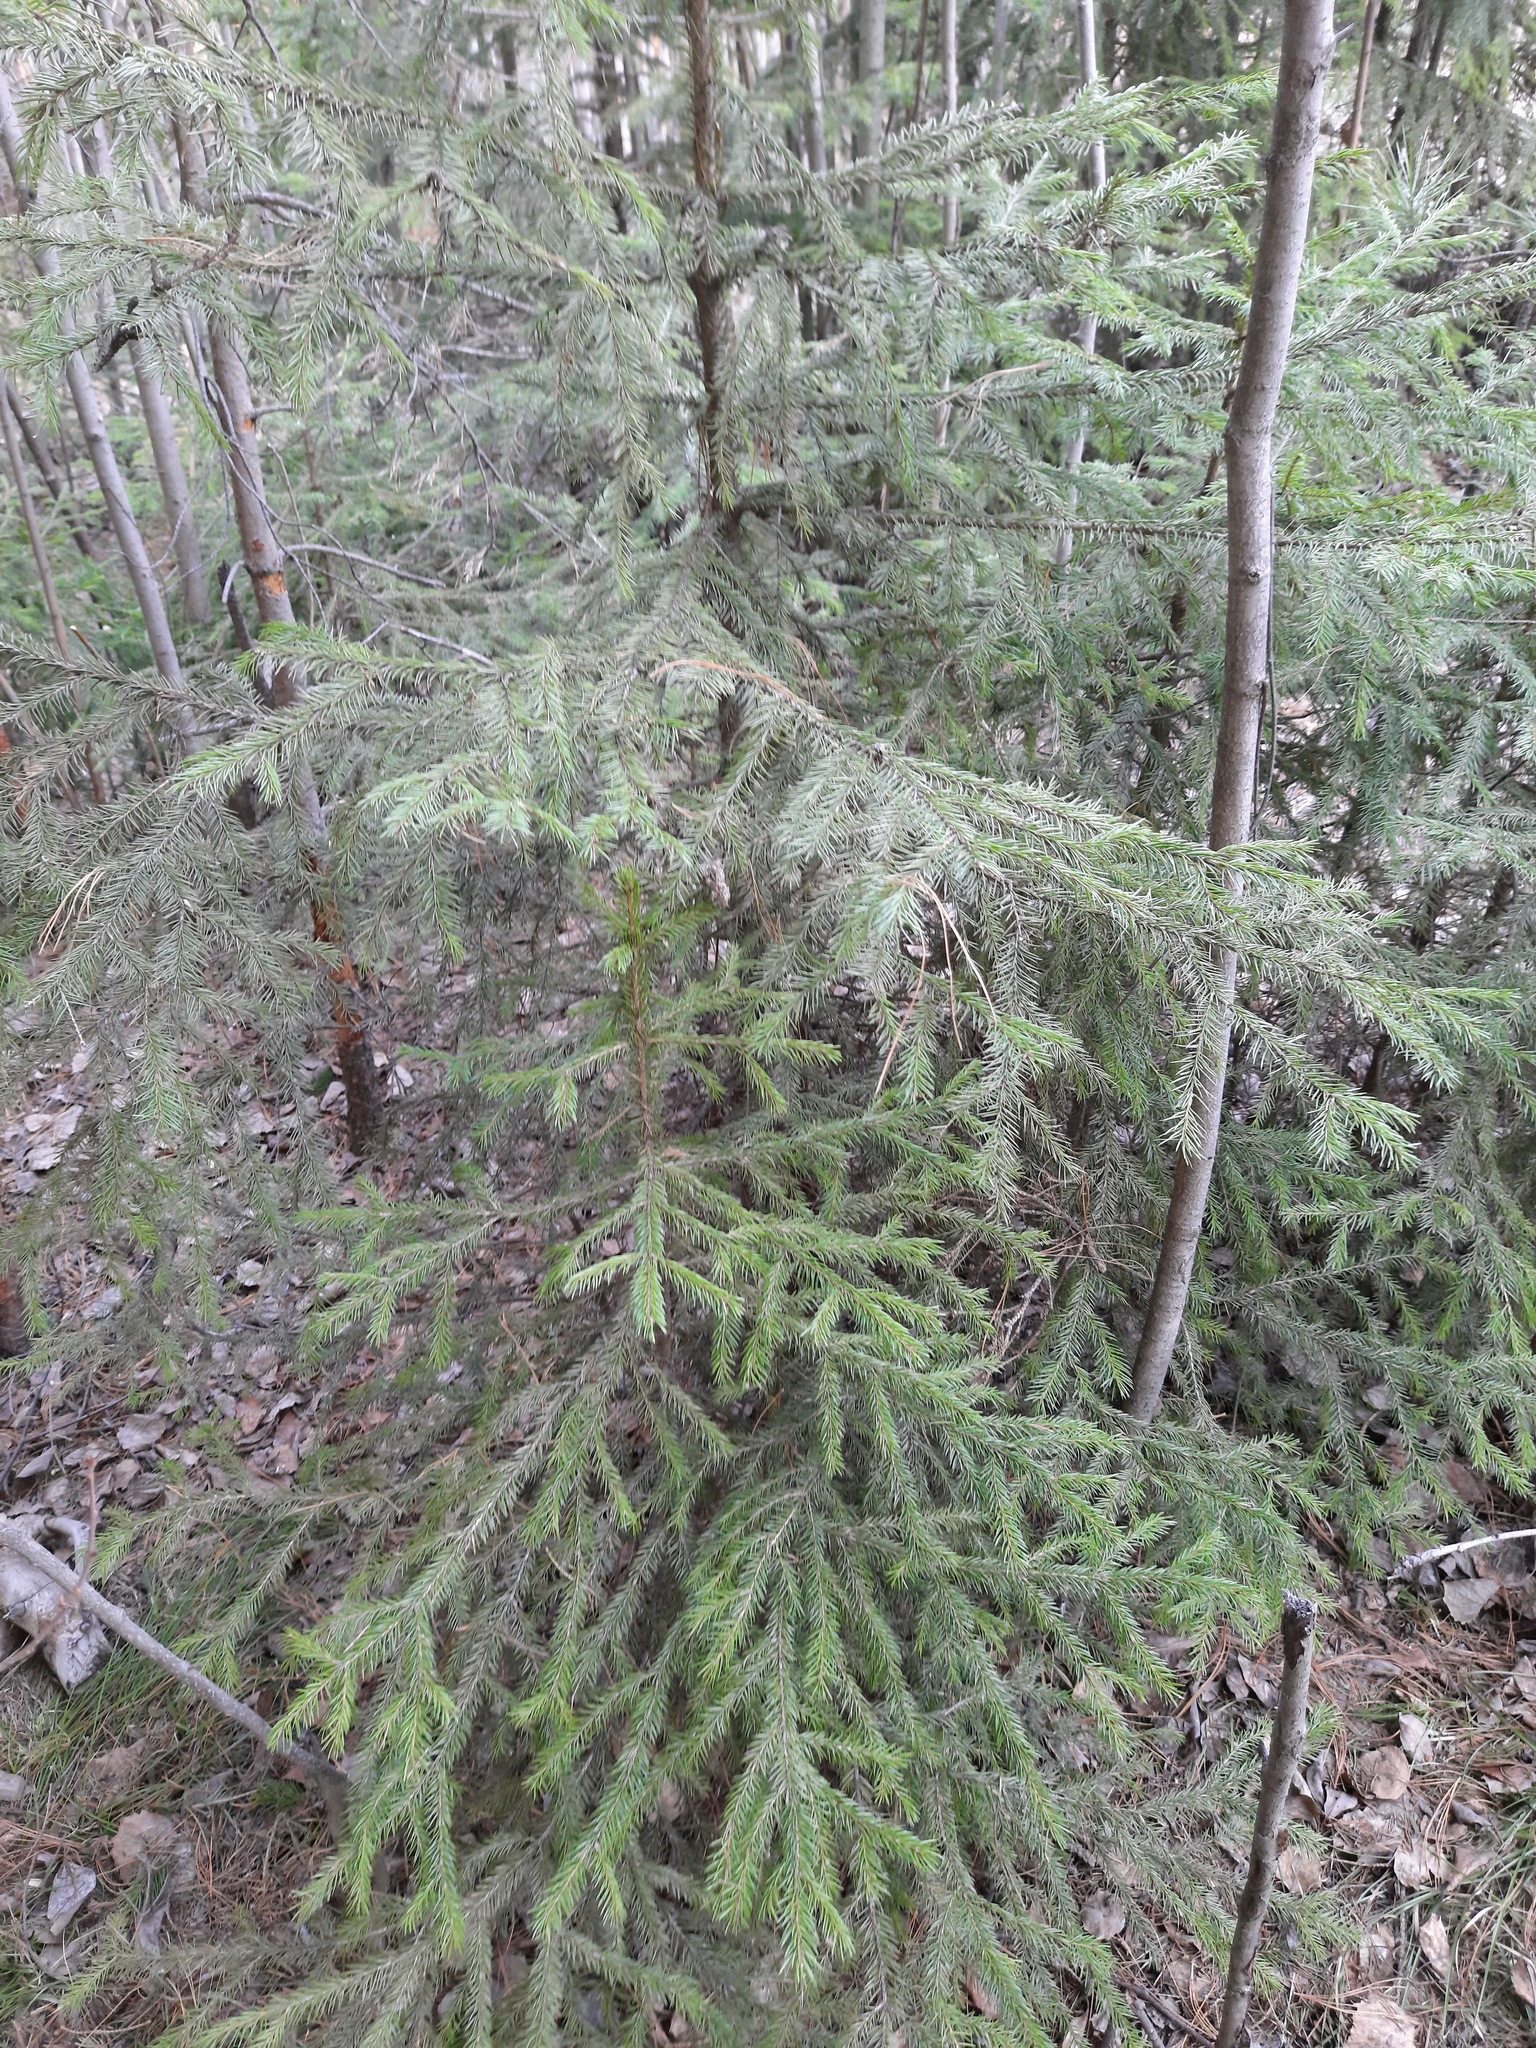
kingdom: Plantae
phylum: Tracheophyta
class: Pinopsida
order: Pinales
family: Pinaceae
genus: Picea
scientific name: Picea obovata
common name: Siberian spruce
